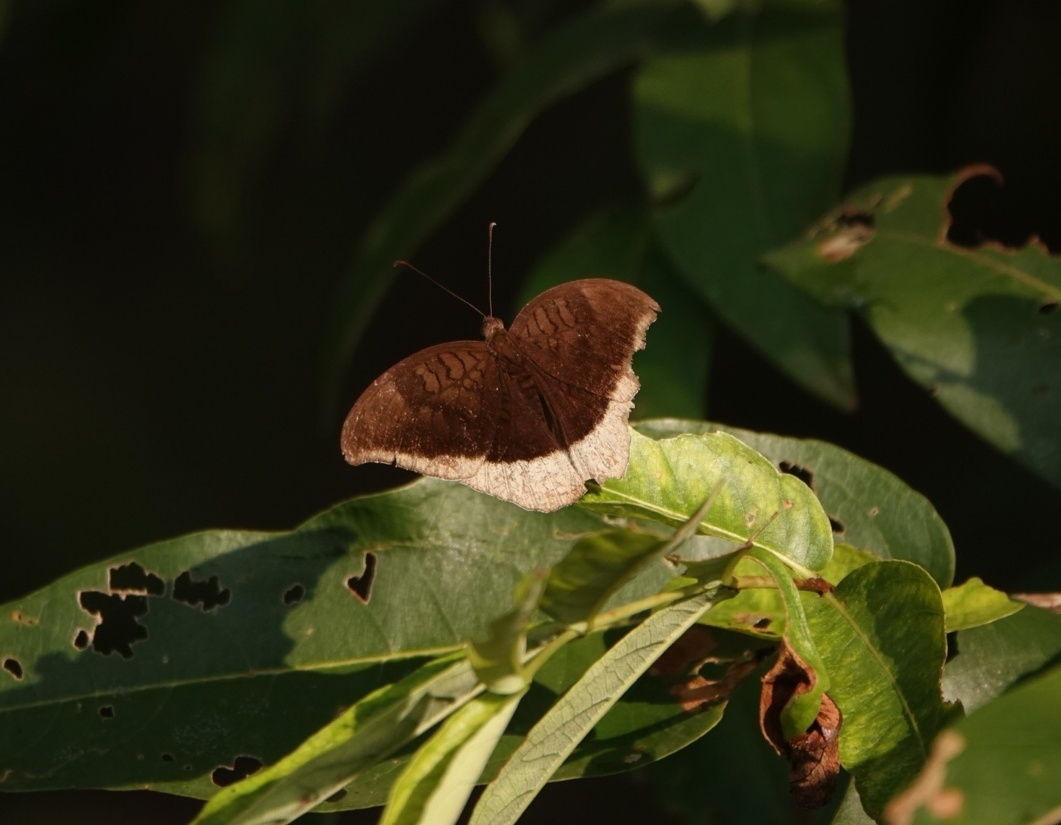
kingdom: Animalia
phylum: Arthropoda
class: Insecta
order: Lepidoptera
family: Nymphalidae
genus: Tanaecia
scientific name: Tanaecia lepidea
